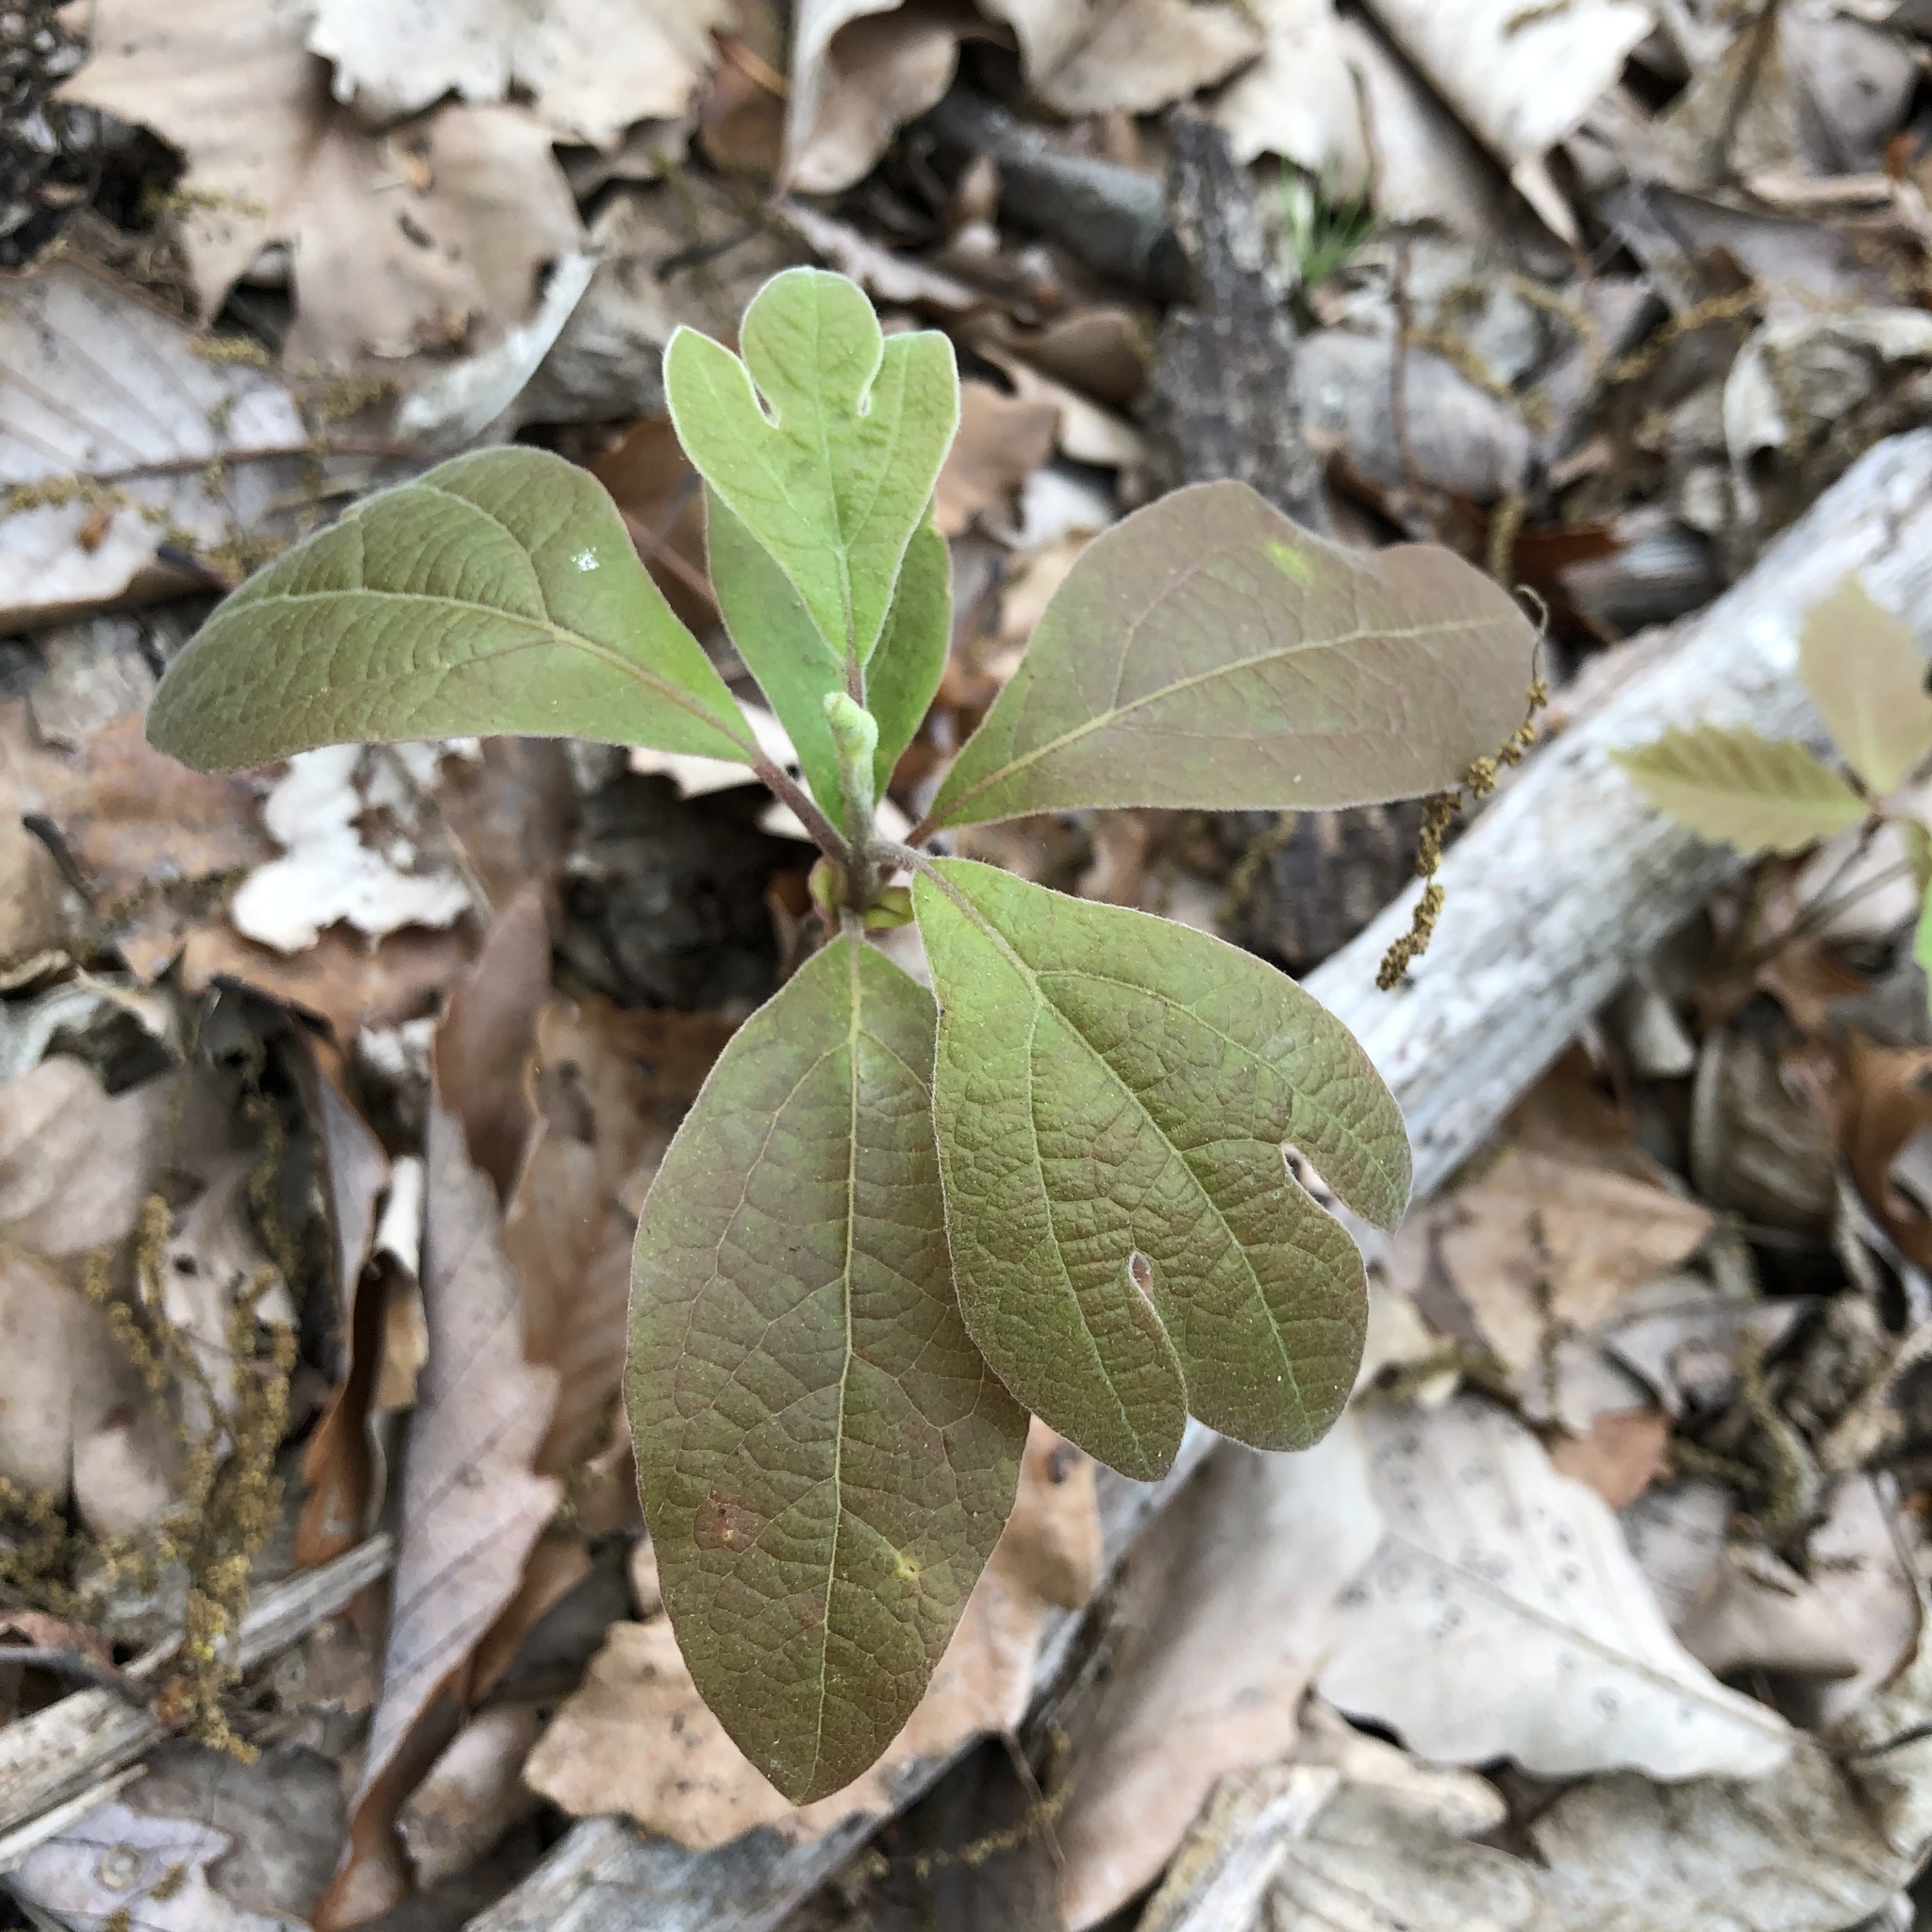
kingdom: Plantae
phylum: Tracheophyta
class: Magnoliopsida
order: Laurales
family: Lauraceae
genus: Sassafras
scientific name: Sassafras albidum
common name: Sassafras
